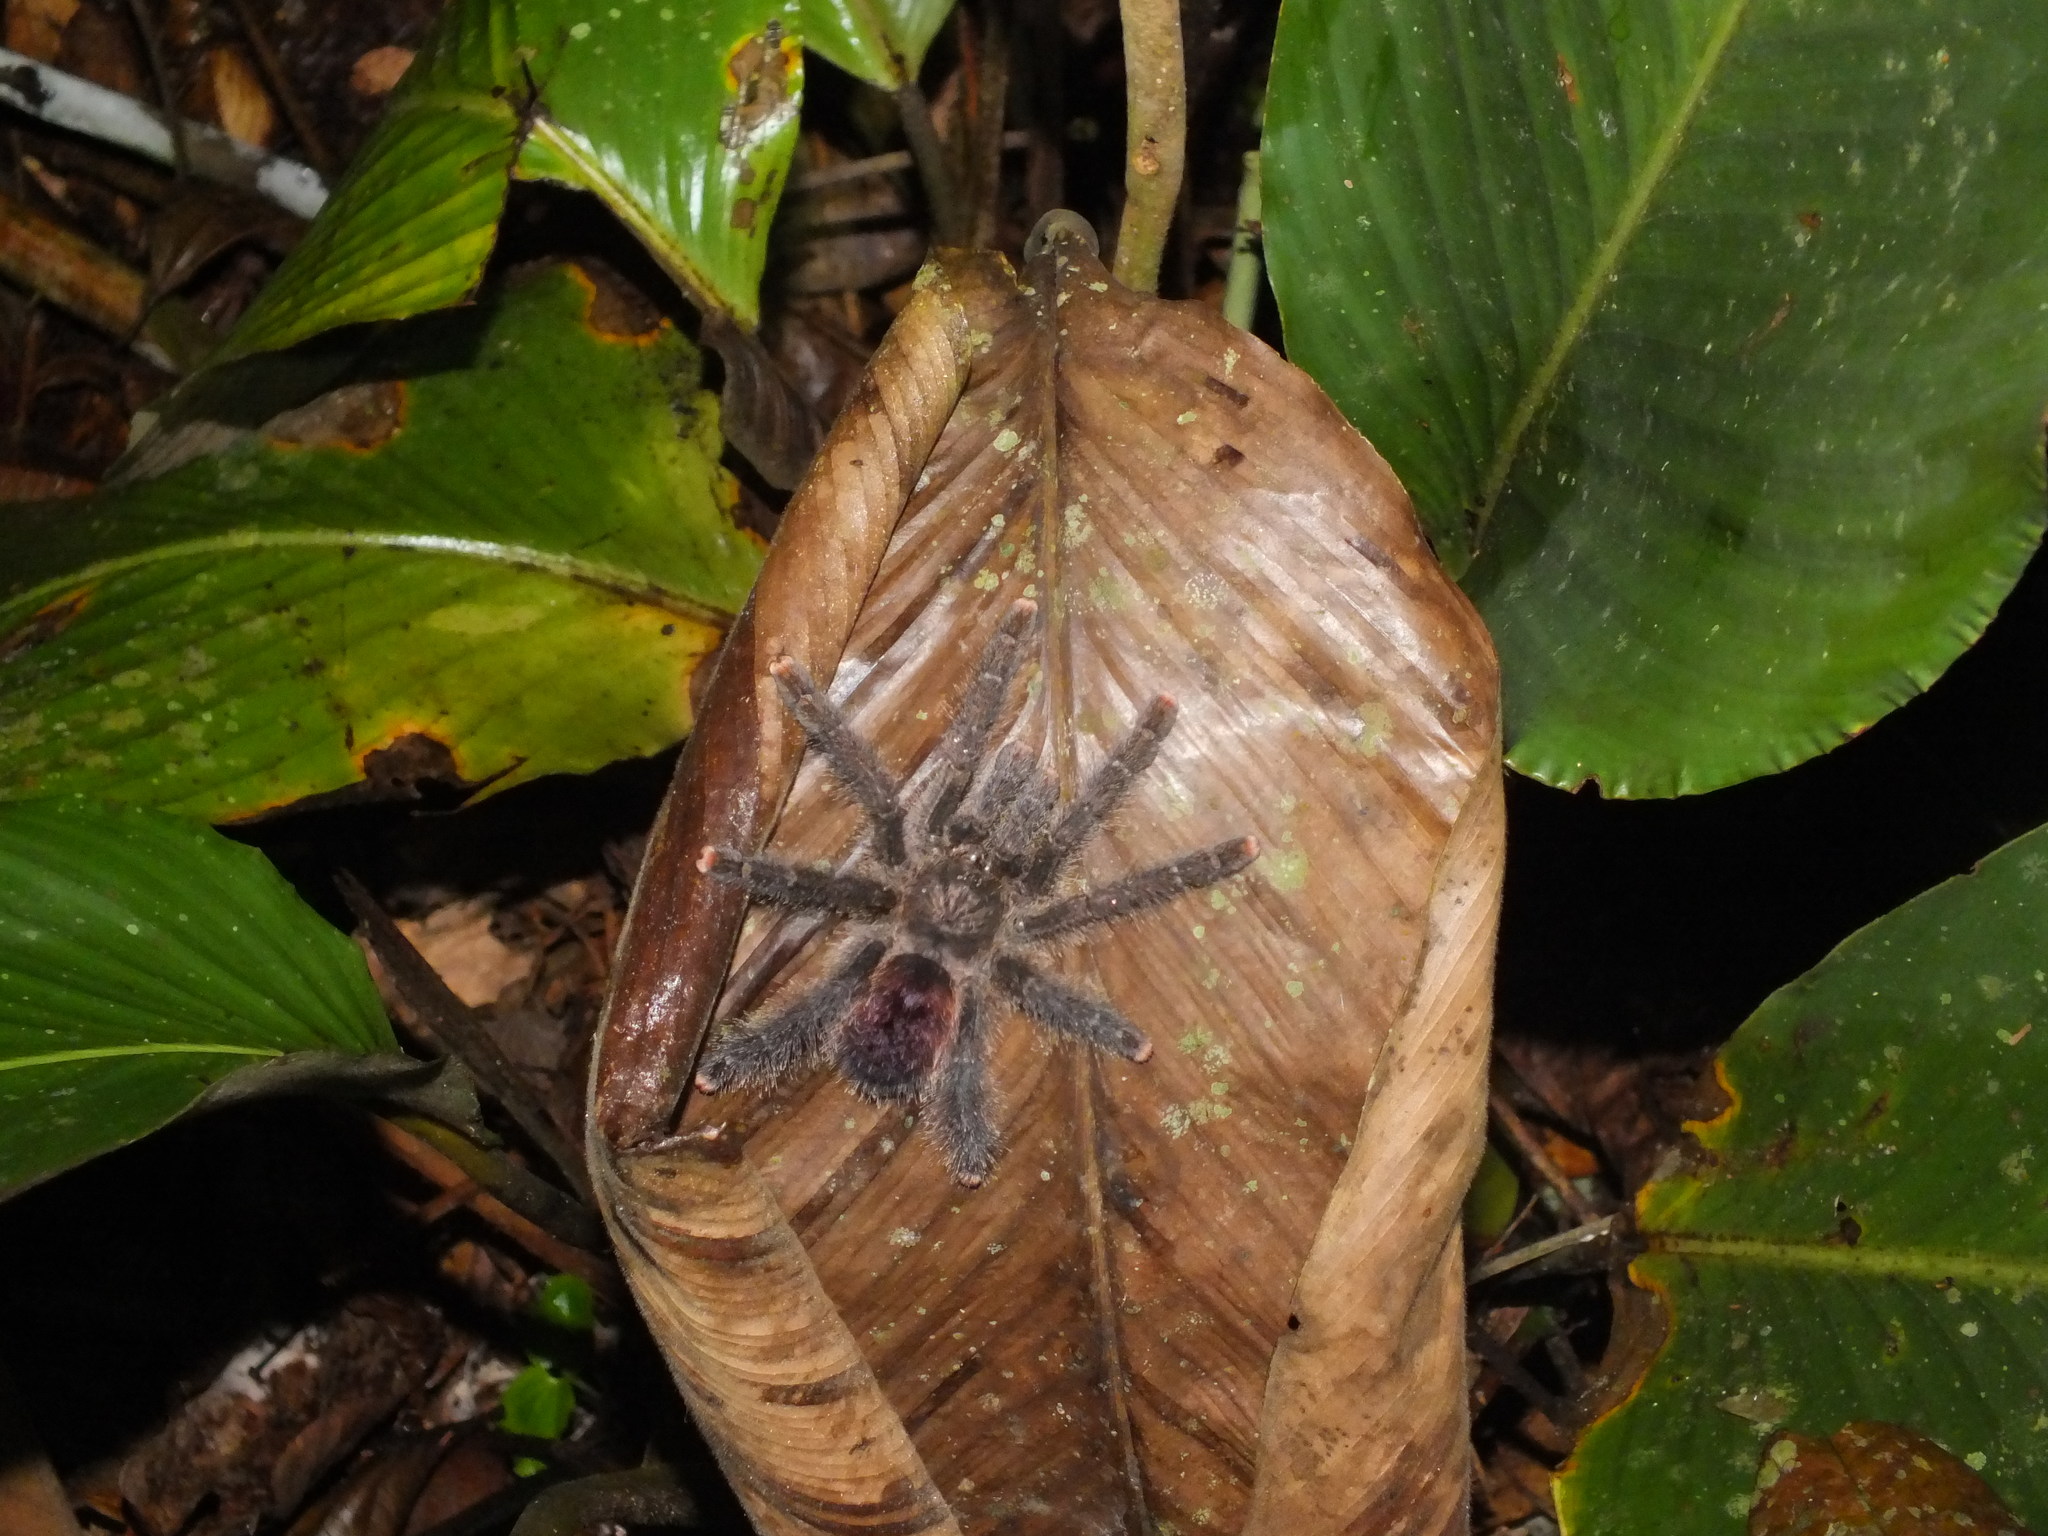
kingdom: Animalia
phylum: Arthropoda
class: Arachnida
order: Araneae
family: Theraphosidae
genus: Avicularia
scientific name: Avicularia juruensis
